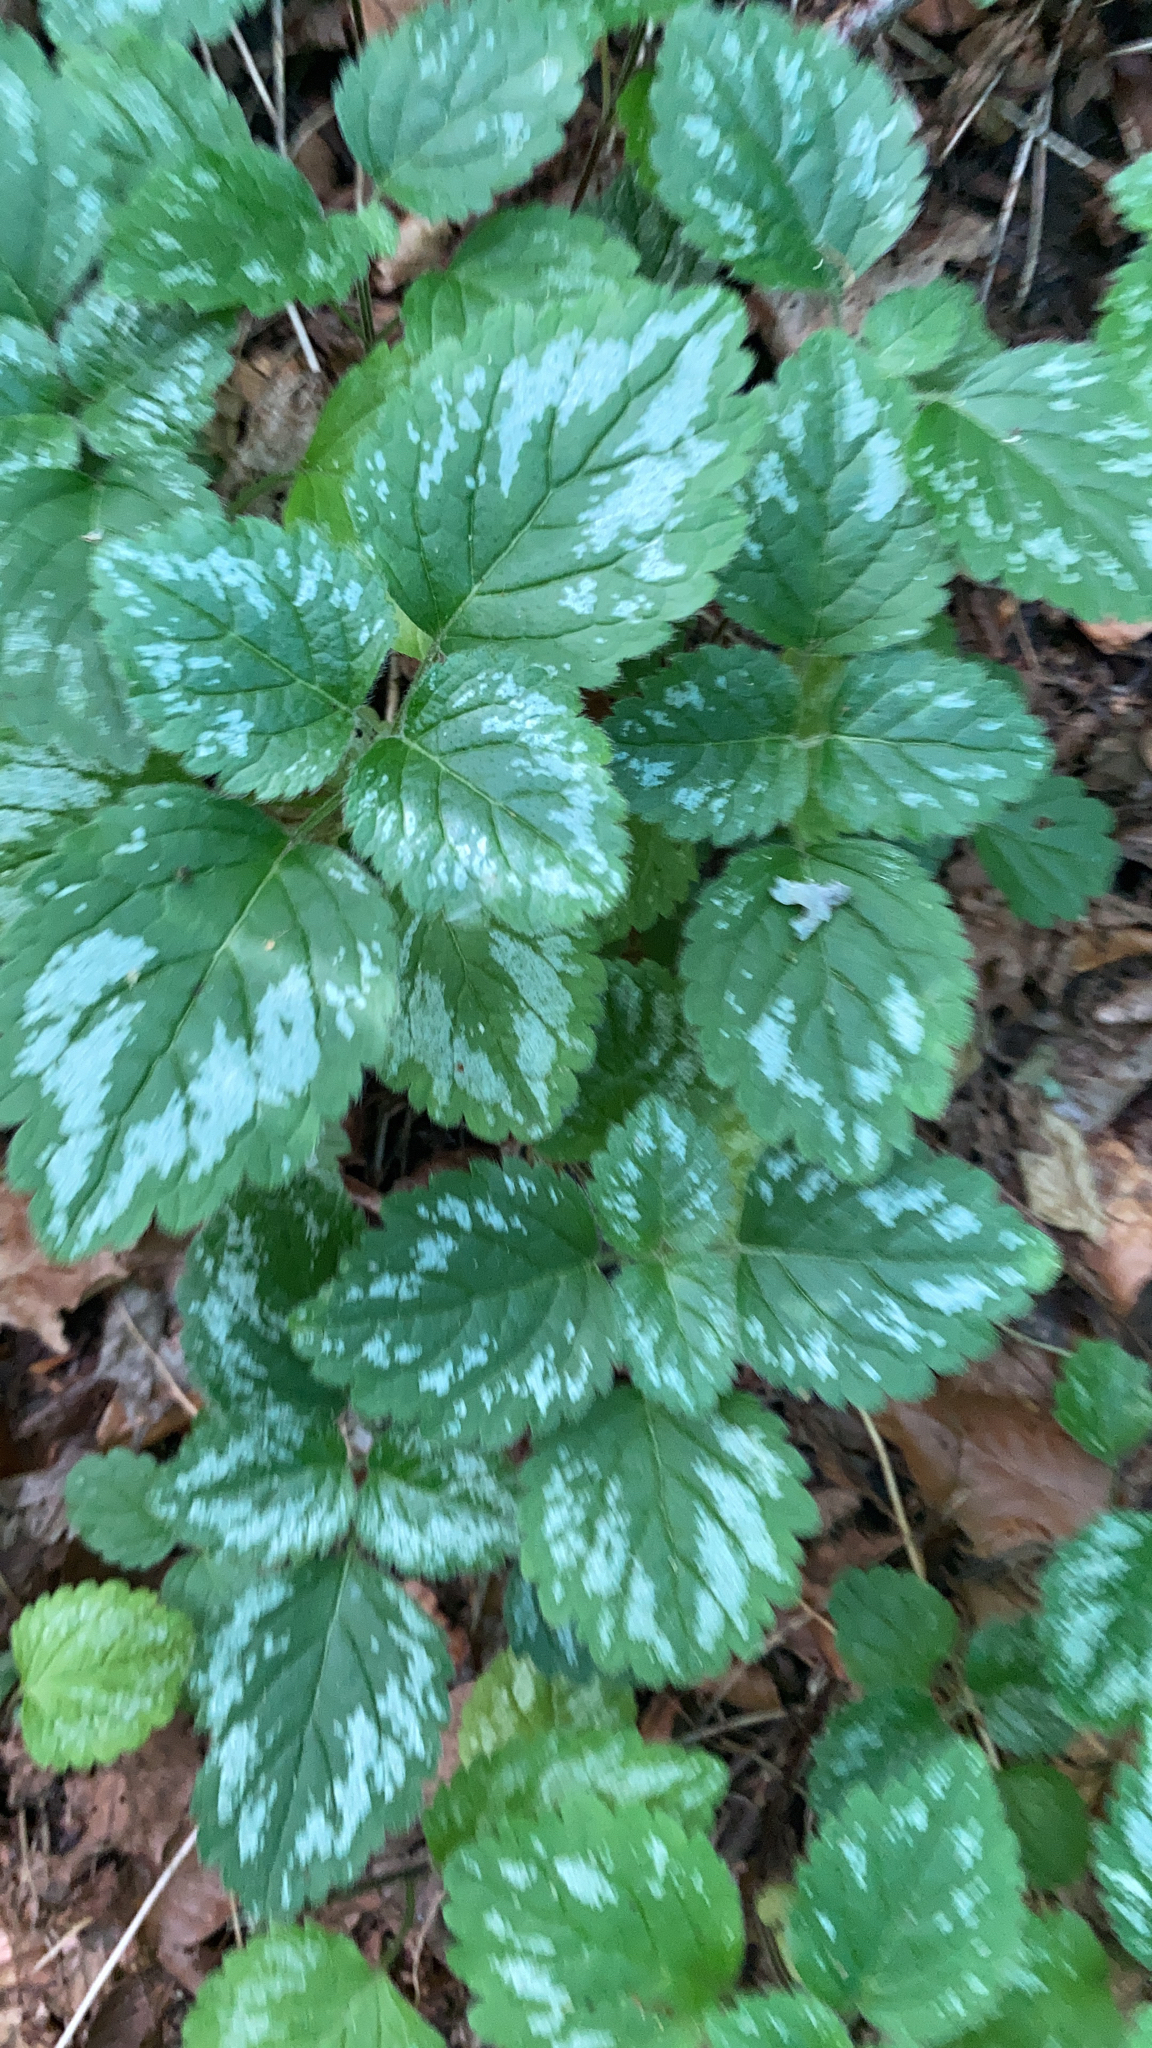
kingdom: Plantae
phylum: Tracheophyta
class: Magnoliopsida
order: Lamiales
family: Lamiaceae
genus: Lamium
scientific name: Lamium galeobdolon
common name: Yellow archangel
